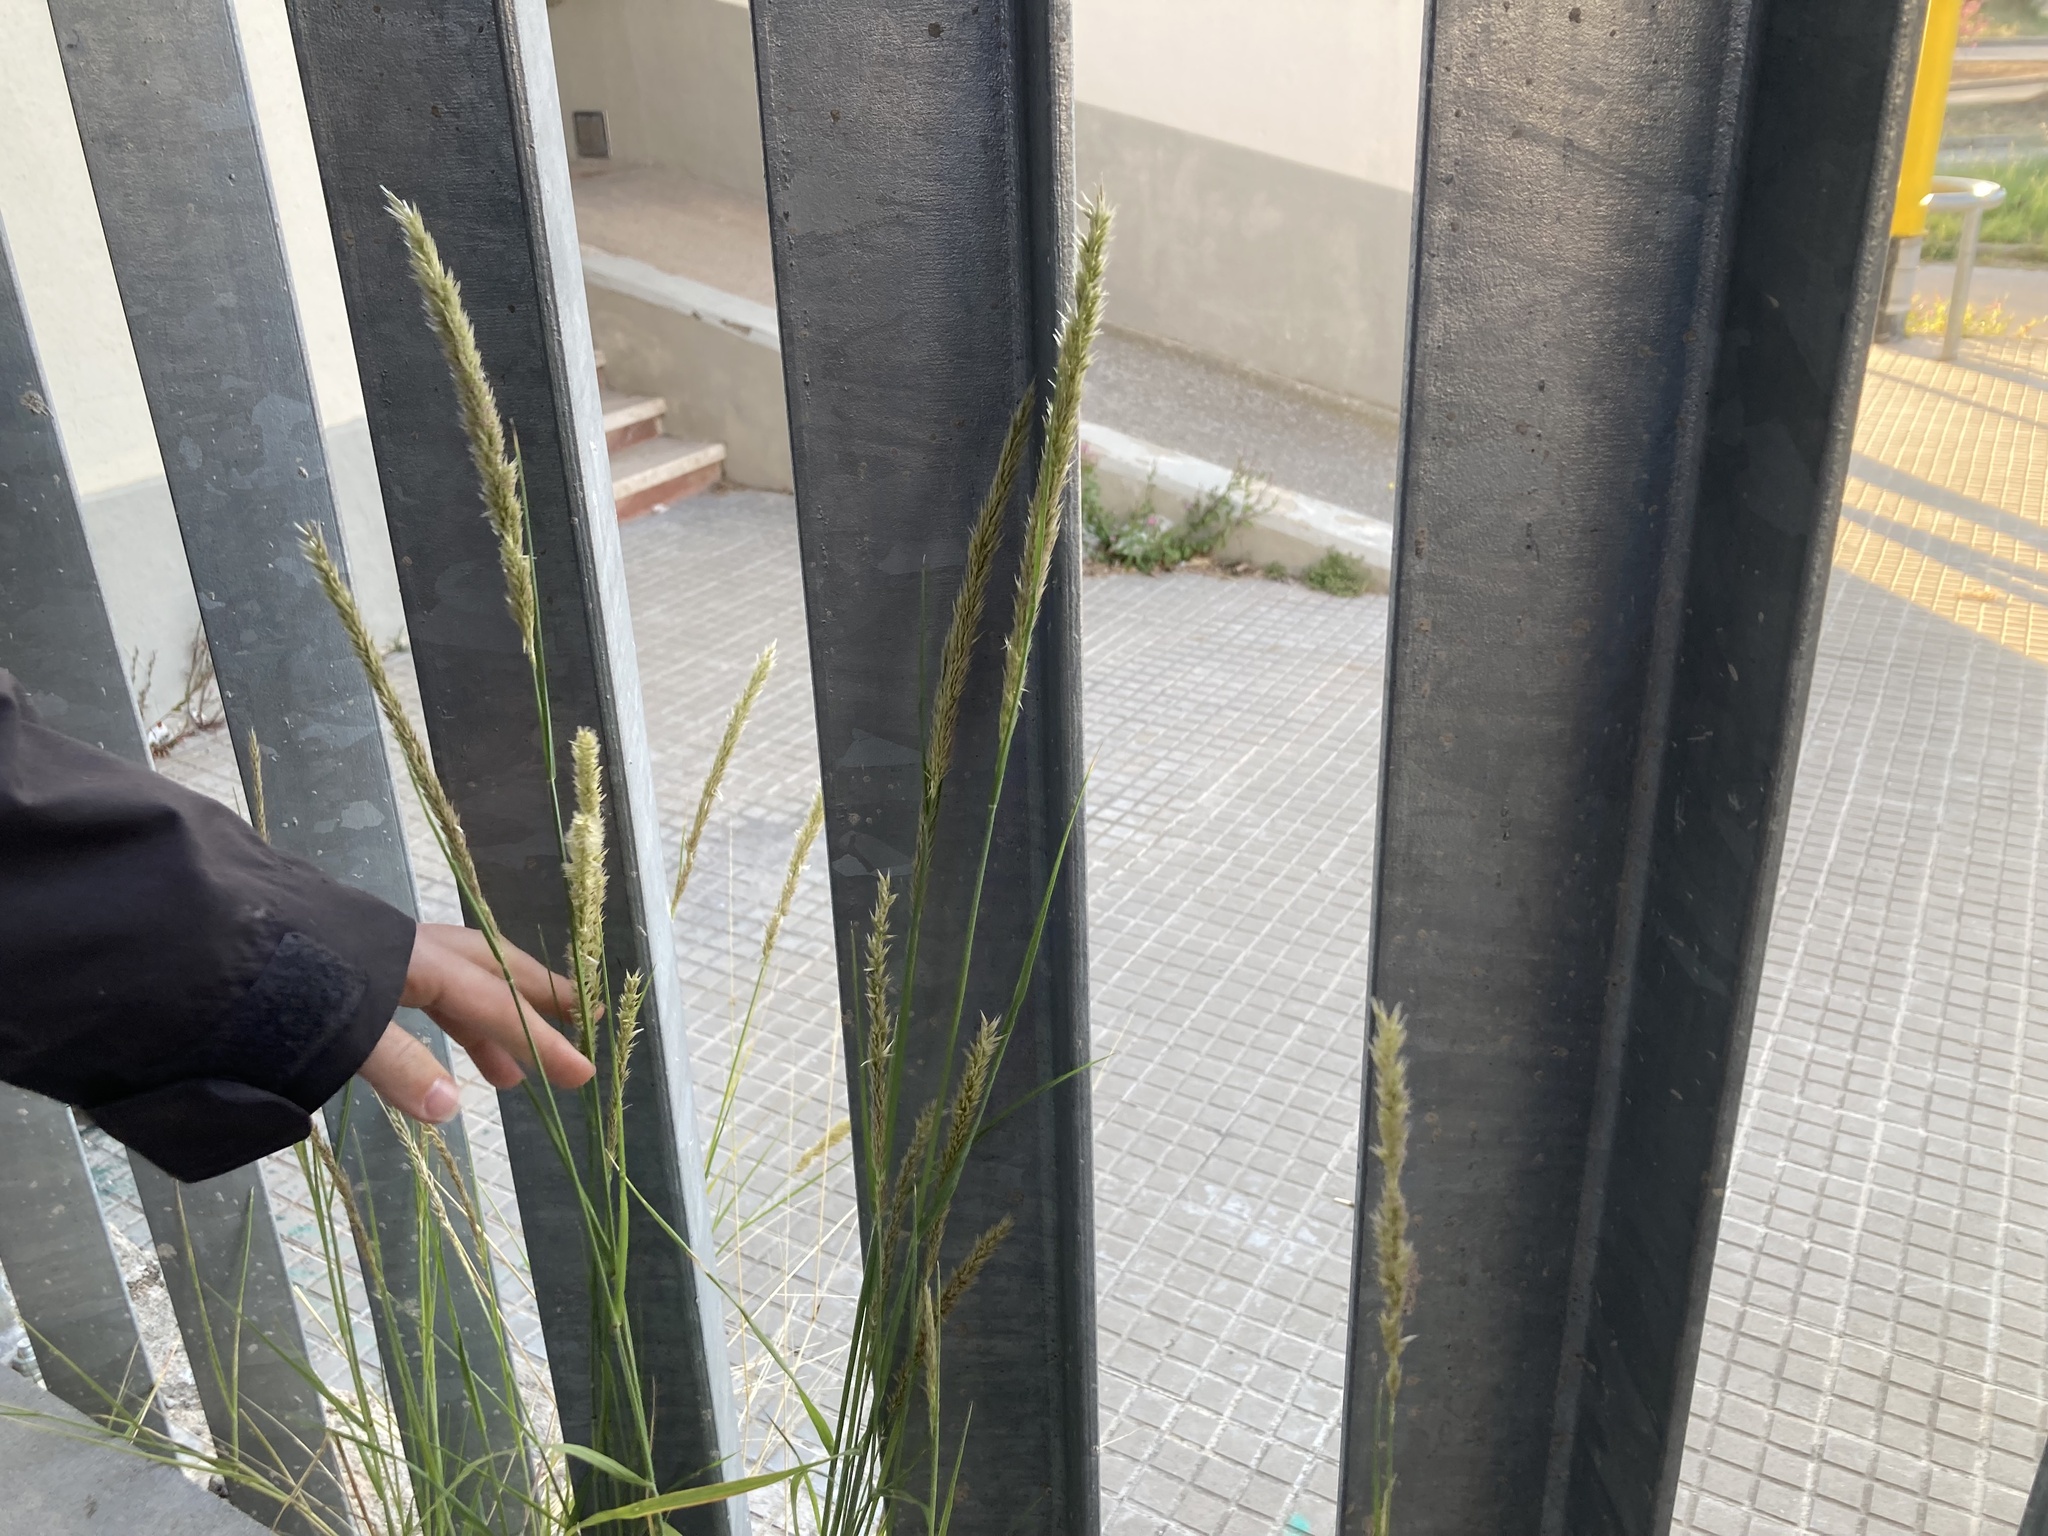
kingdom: Plantae
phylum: Tracheophyta
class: Liliopsida
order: Poales
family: Poaceae
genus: Melica
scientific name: Melica ciliata
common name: Hairy melicgrass
